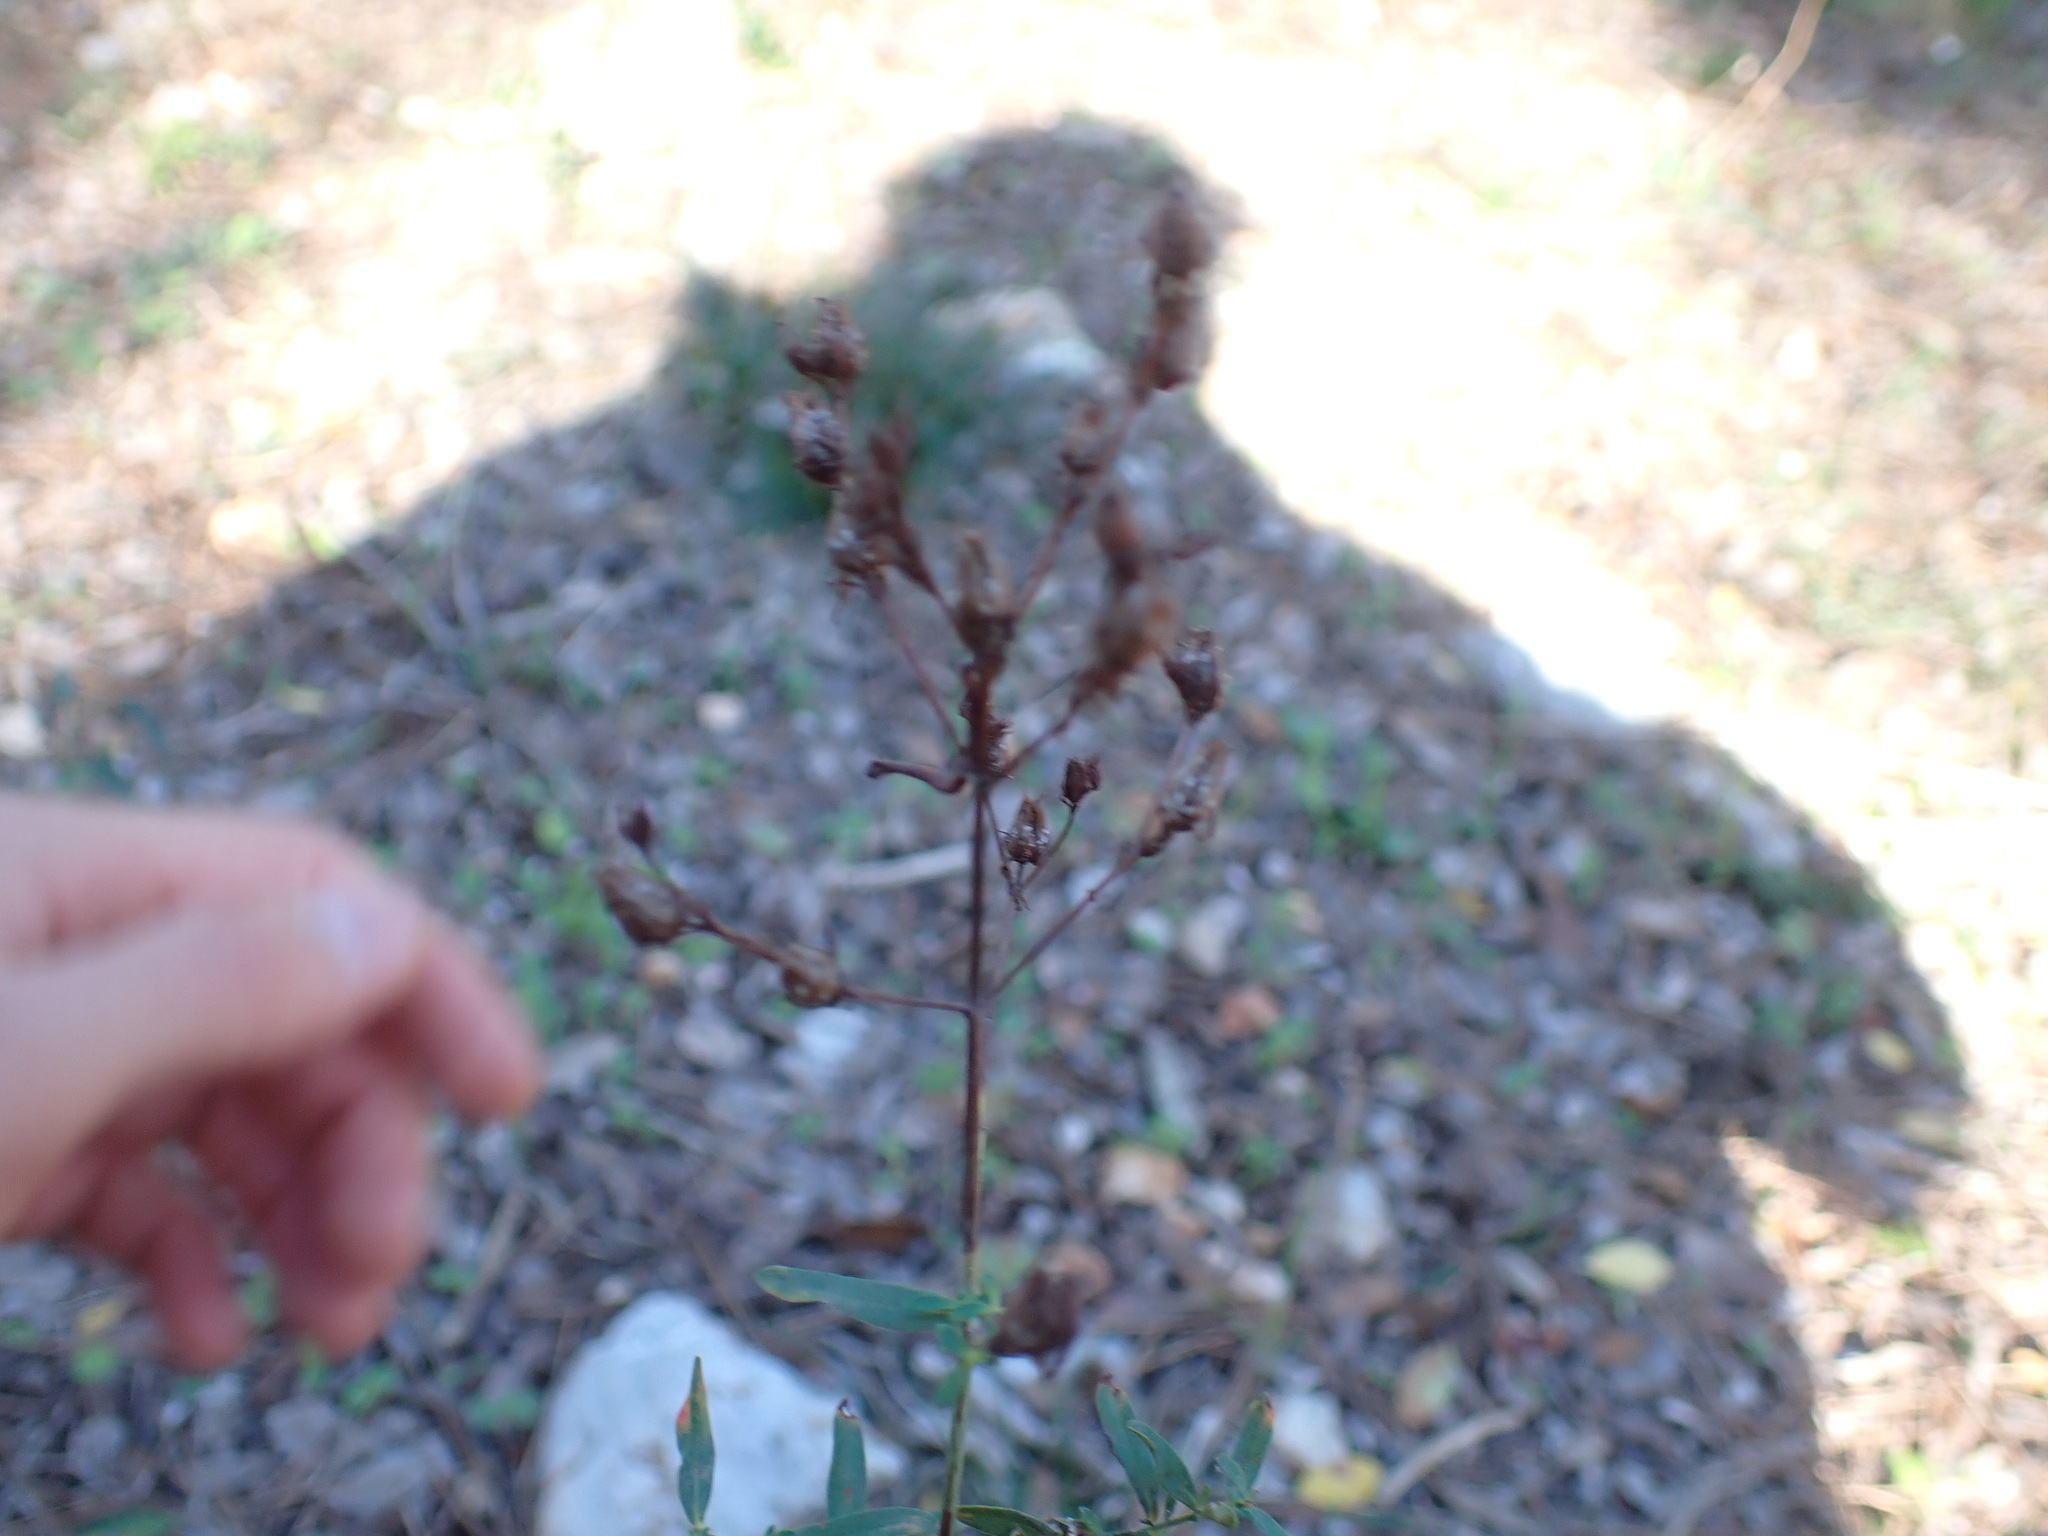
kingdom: Plantae
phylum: Tracheophyta
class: Magnoliopsida
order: Malpighiales
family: Hypericaceae
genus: Hypericum
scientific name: Hypericum perforatum
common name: Common st. johnswort
